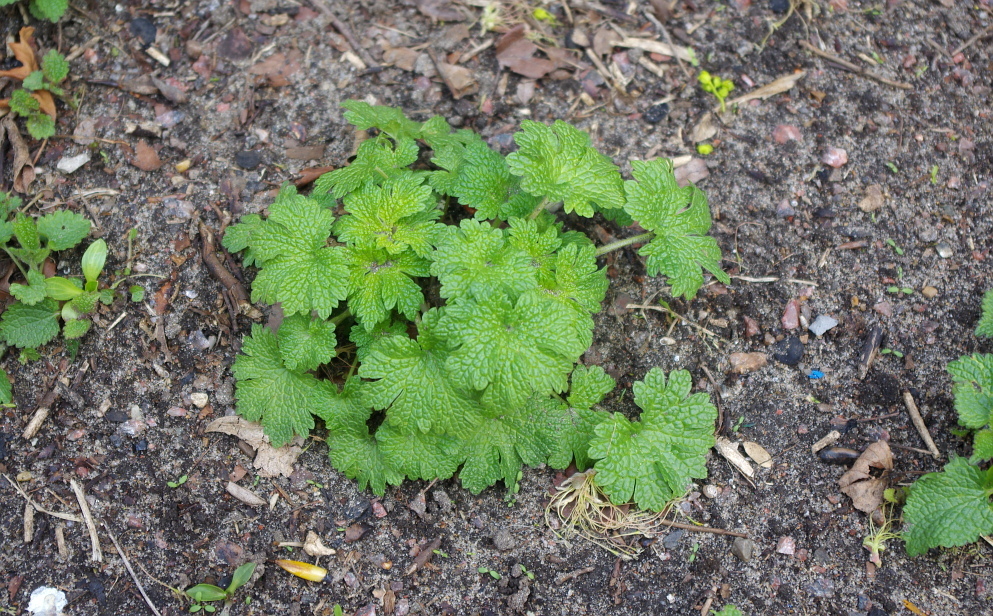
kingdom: Plantae
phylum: Tracheophyta
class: Magnoliopsida
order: Lamiales
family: Lamiaceae
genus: Leonurus
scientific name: Leonurus quinquelobatus
